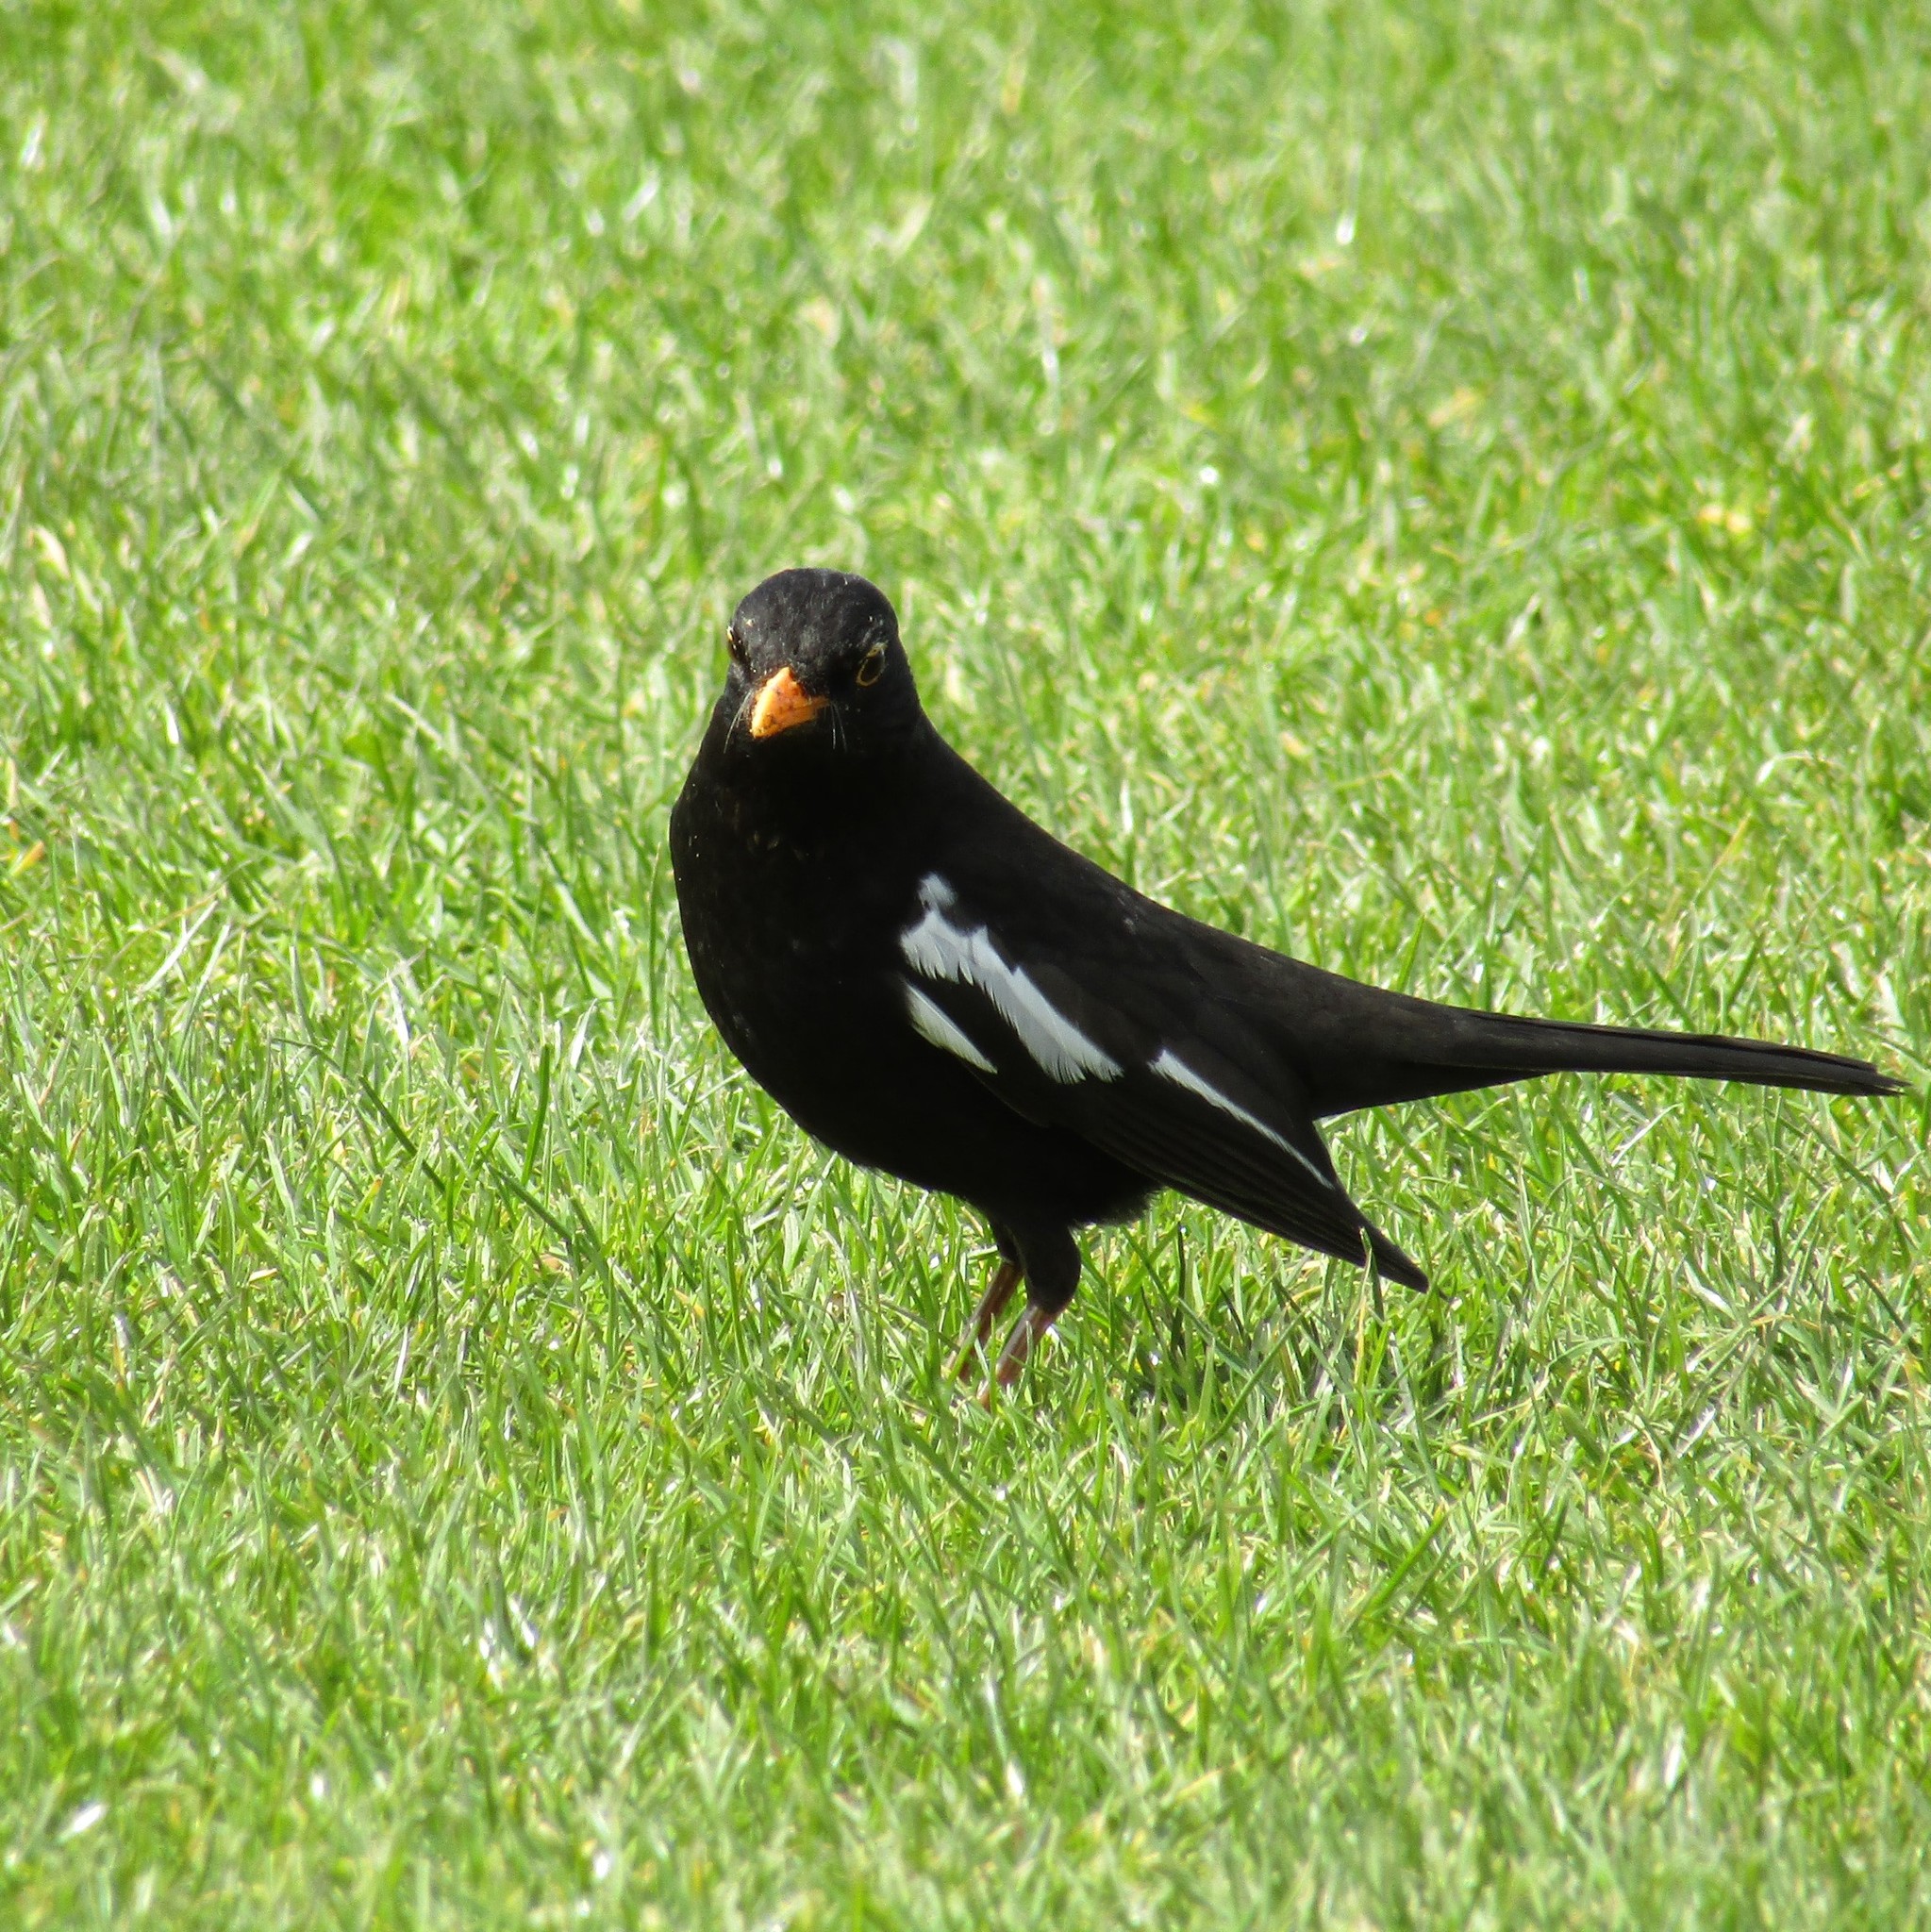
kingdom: Animalia
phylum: Chordata
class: Aves
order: Passeriformes
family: Turdidae
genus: Turdus
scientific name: Turdus merula
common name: Common blackbird
